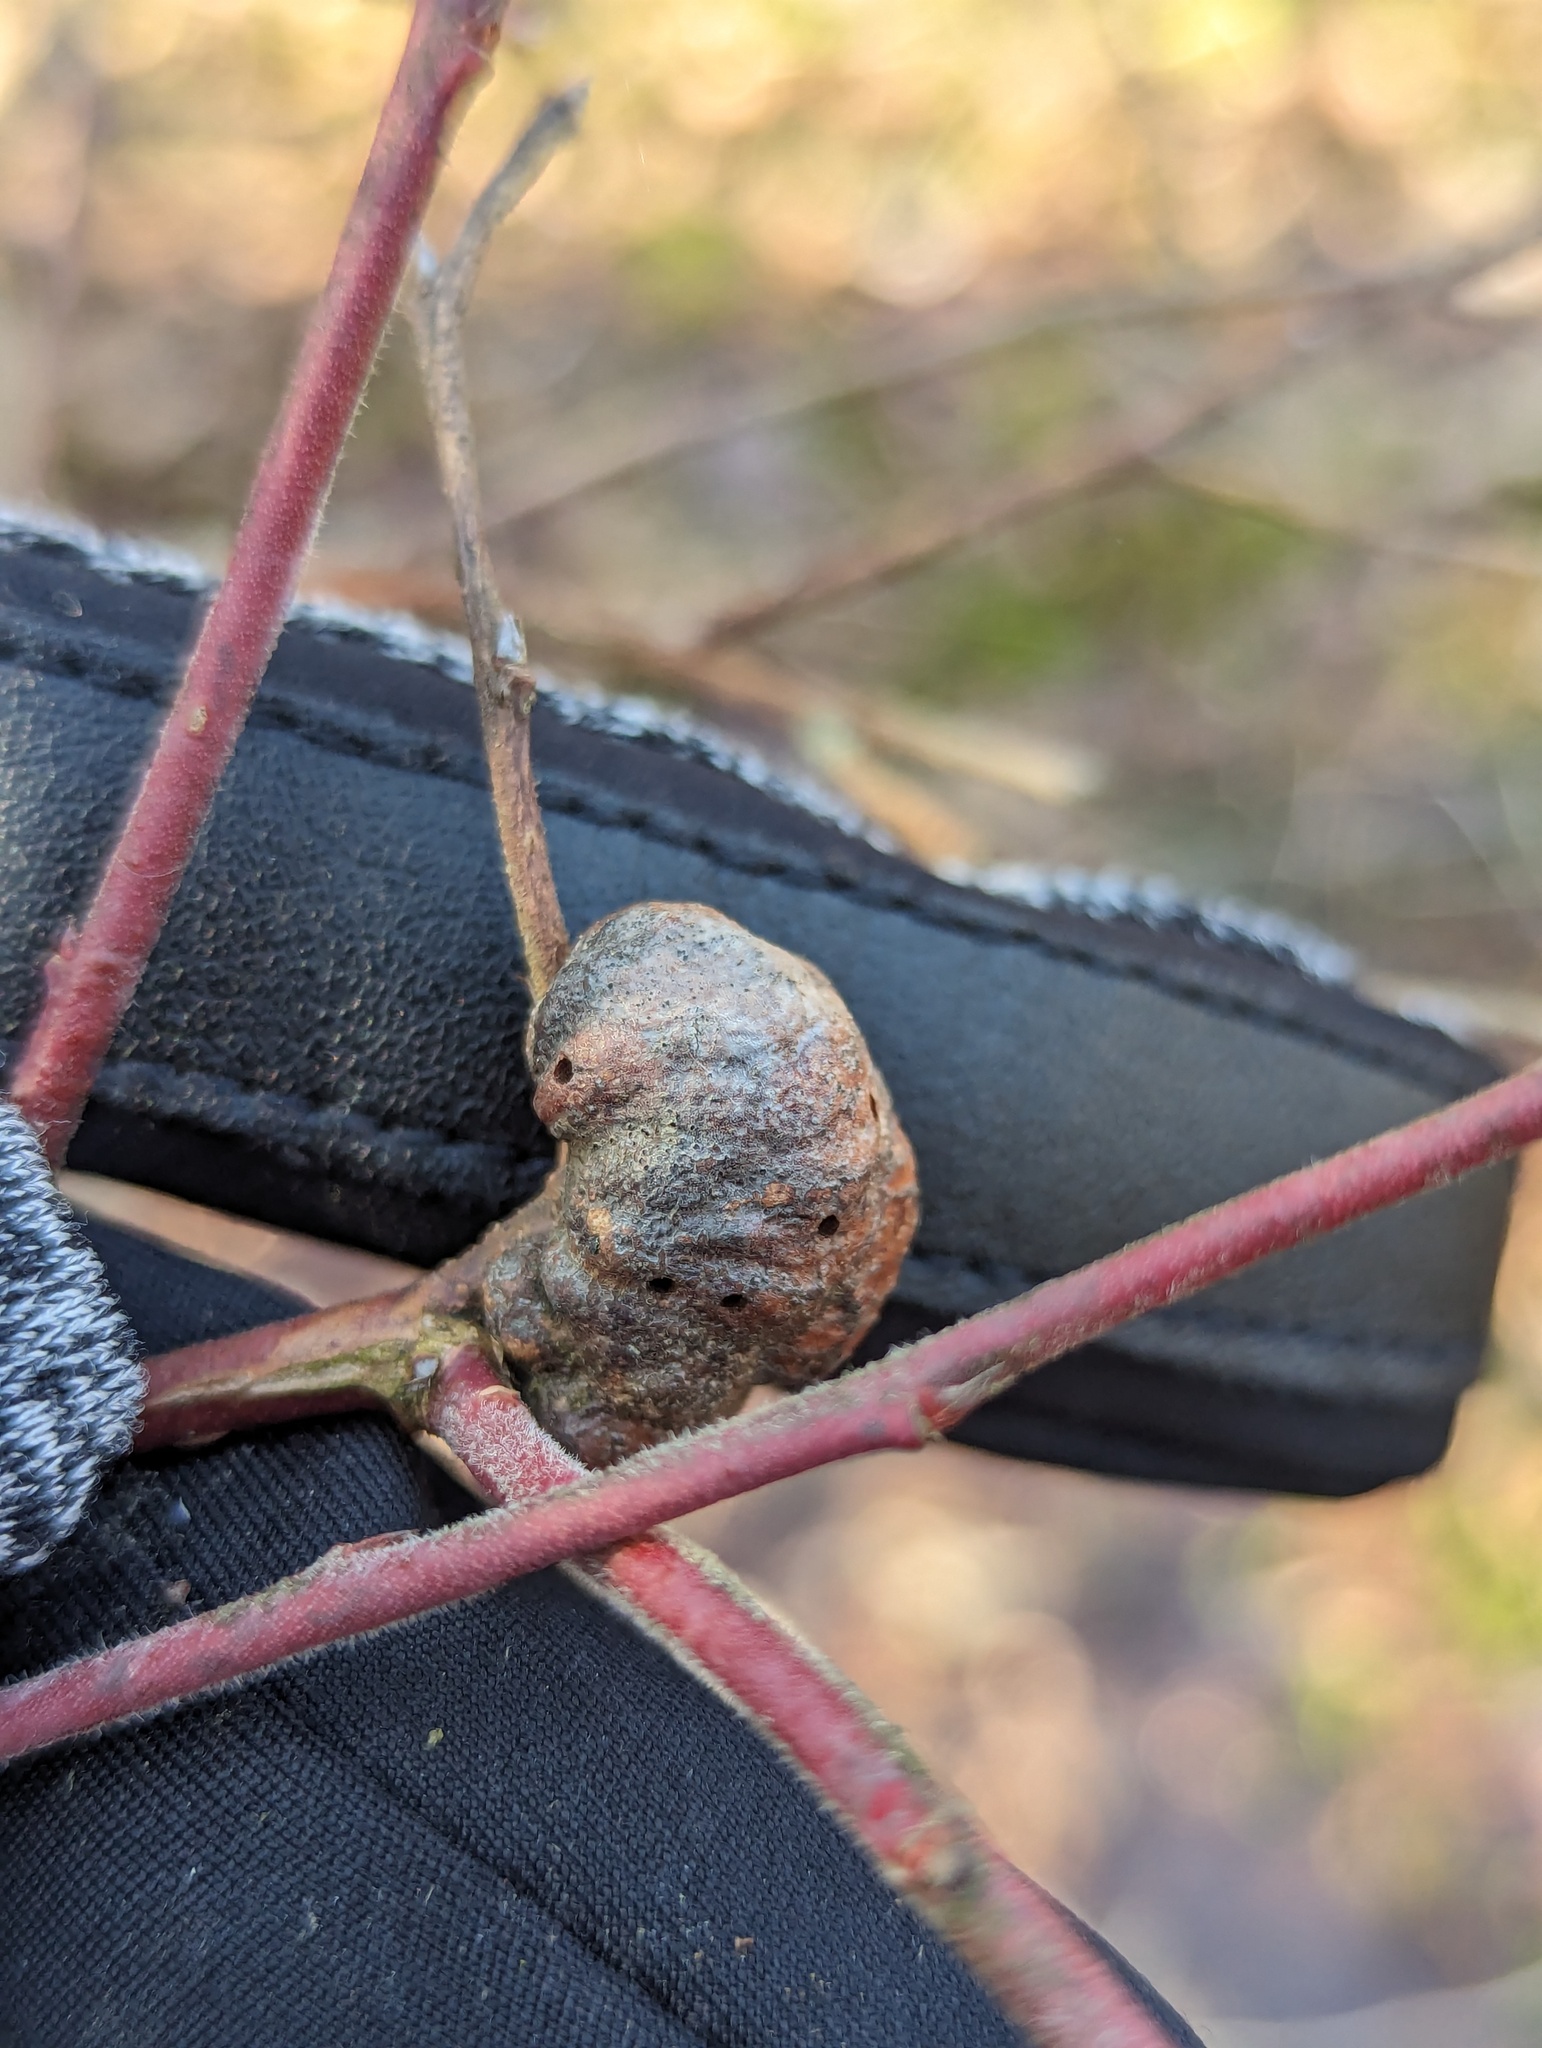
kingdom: Animalia
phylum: Arthropoda
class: Insecta
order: Hymenoptera
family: Pteromalidae
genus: Hemadas
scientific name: Hemadas nubilipennis
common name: Blueberry stem gall wasp
